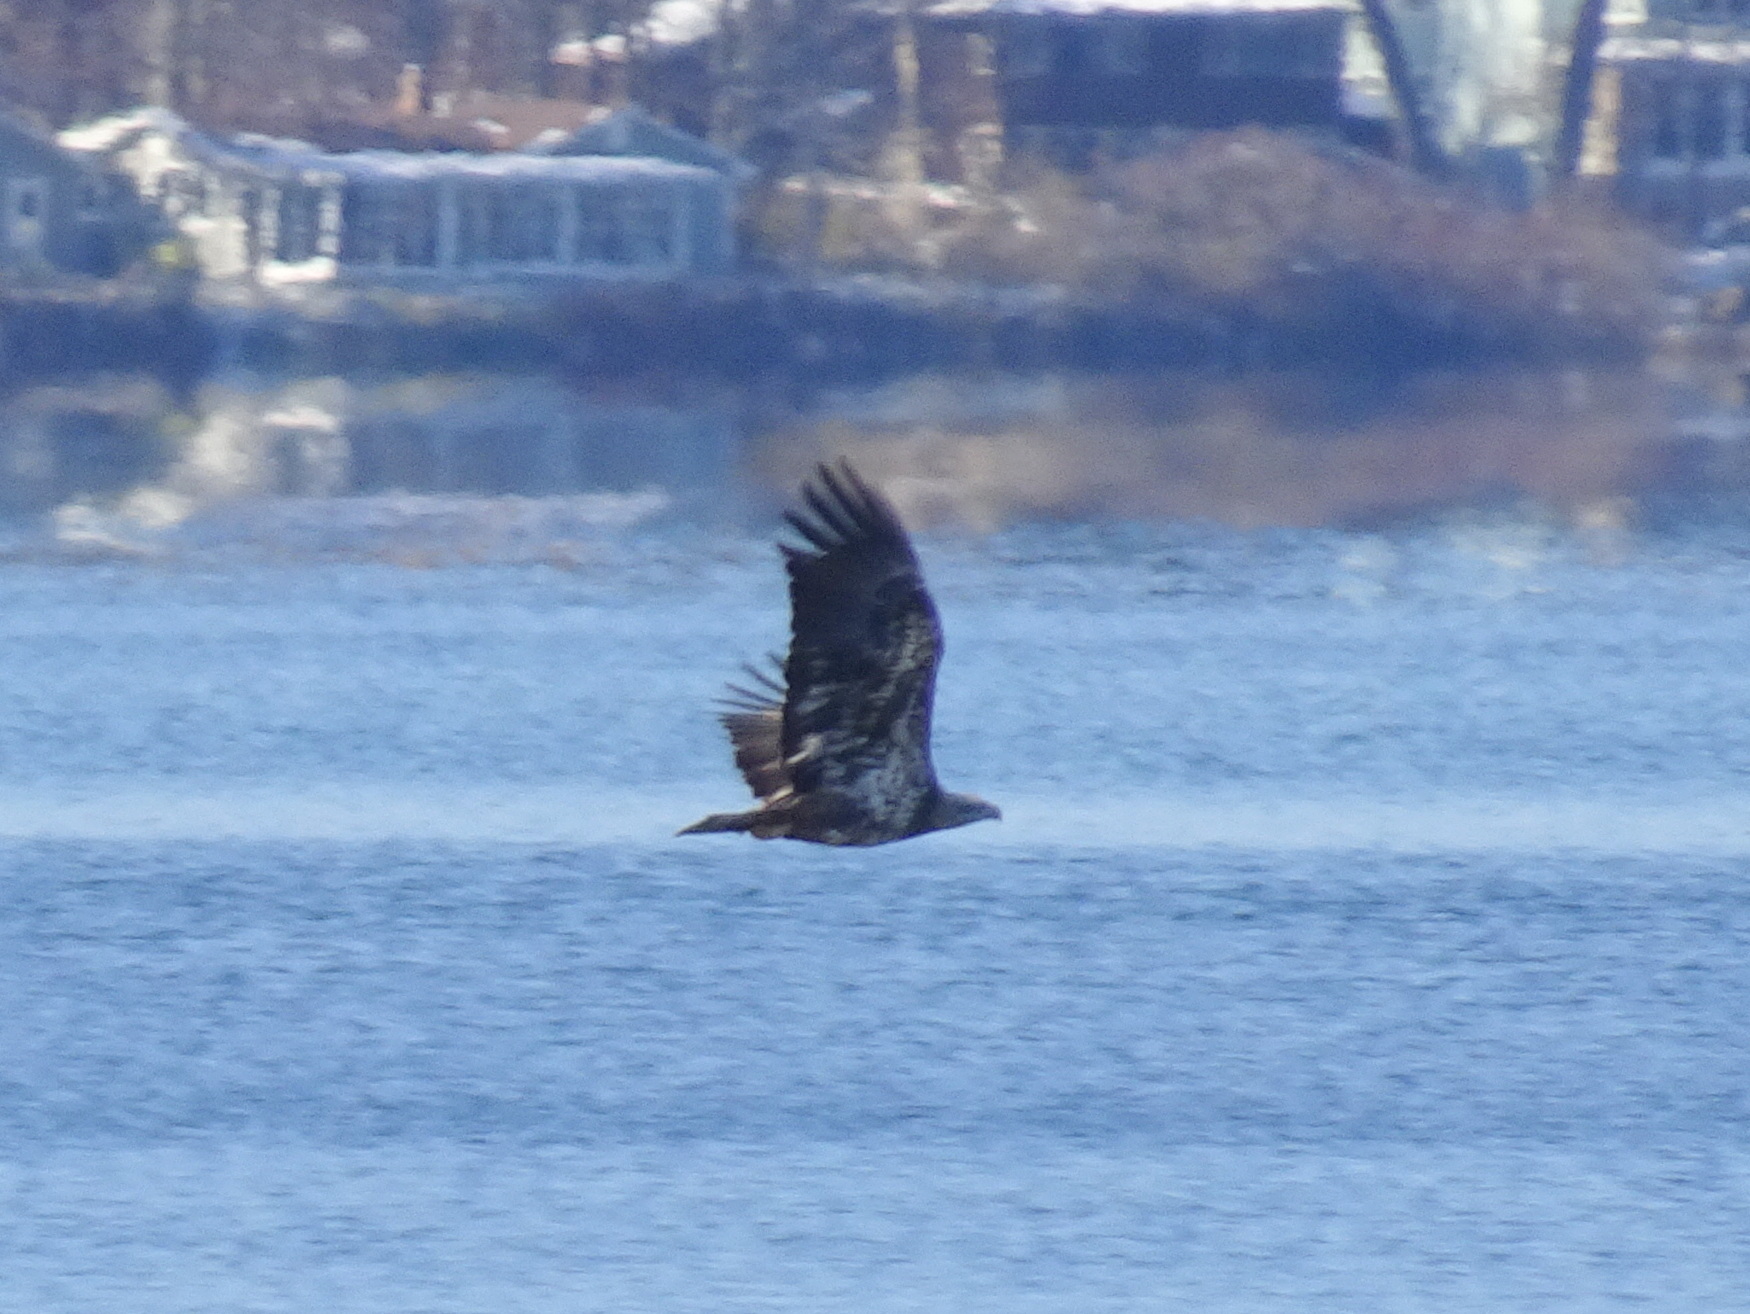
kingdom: Animalia
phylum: Chordata
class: Aves
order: Accipitriformes
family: Accipitridae
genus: Haliaeetus
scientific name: Haliaeetus leucocephalus
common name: Bald eagle
